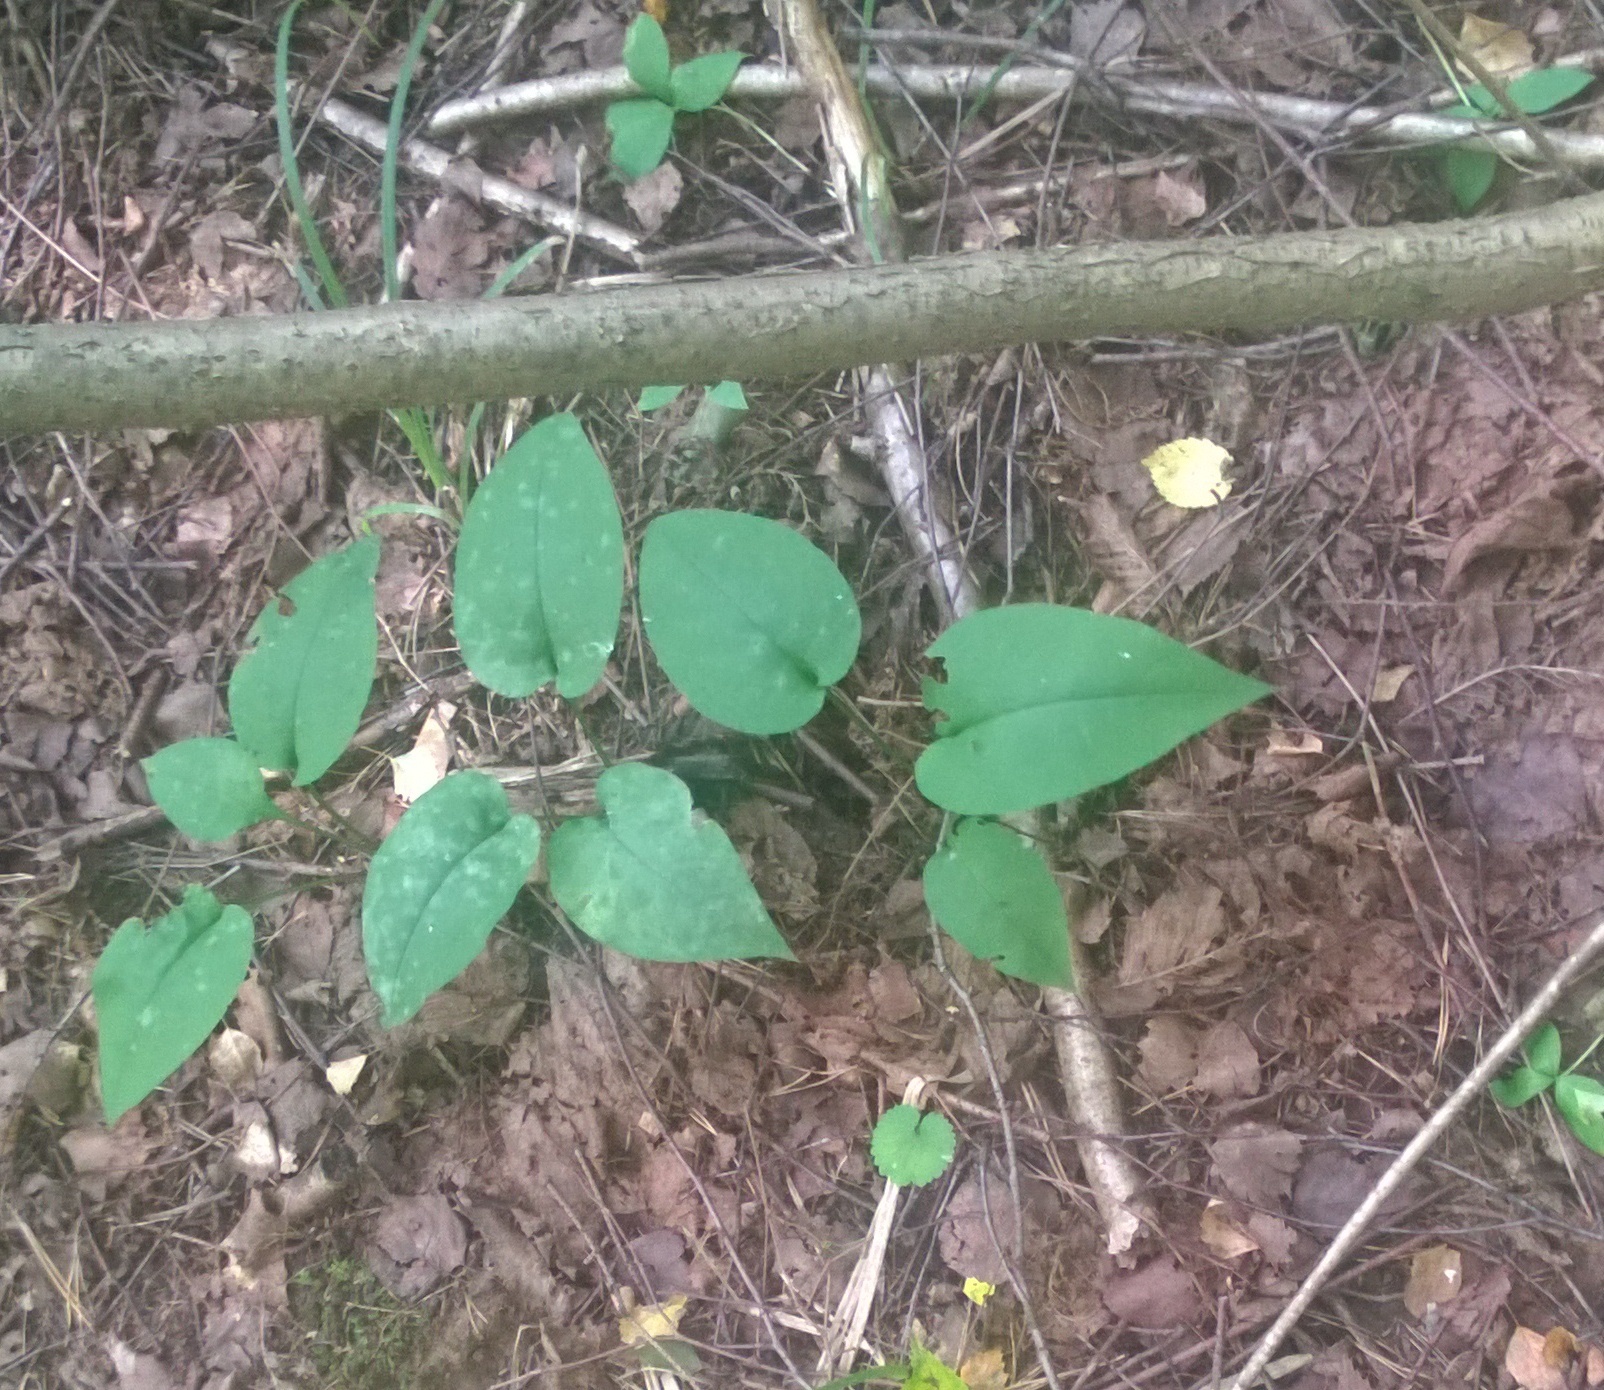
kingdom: Plantae
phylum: Tracheophyta
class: Magnoliopsida
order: Boraginales
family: Boraginaceae
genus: Pulmonaria
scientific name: Pulmonaria obscura
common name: Suffolk lungwort
